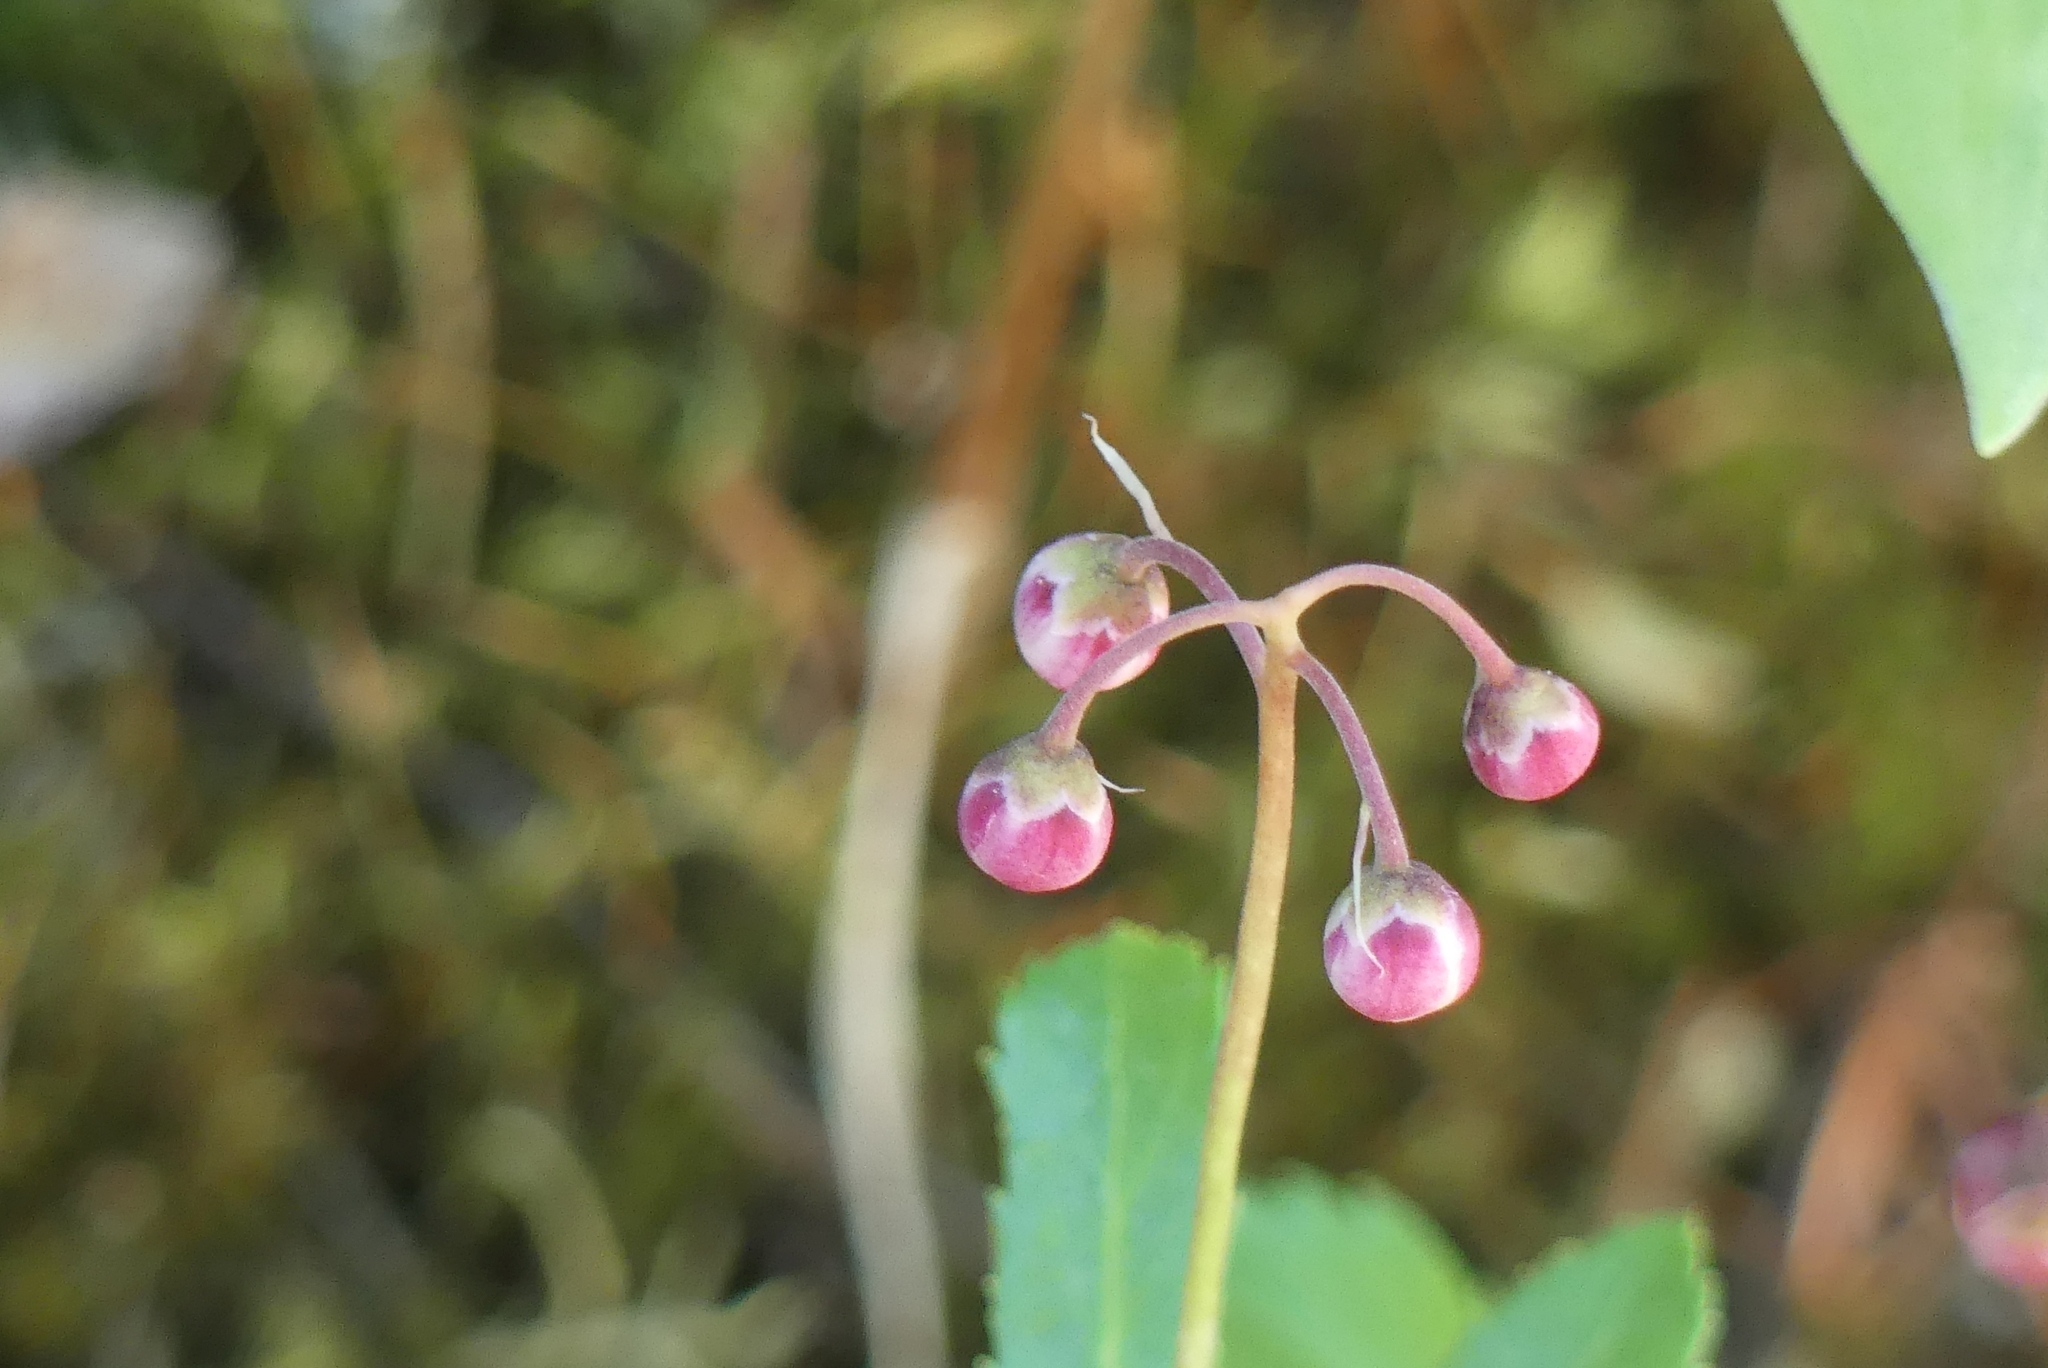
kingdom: Plantae
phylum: Tracheophyta
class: Magnoliopsida
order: Ericales
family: Ericaceae
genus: Chimaphila
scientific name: Chimaphila umbellata
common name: Pipsissewa
